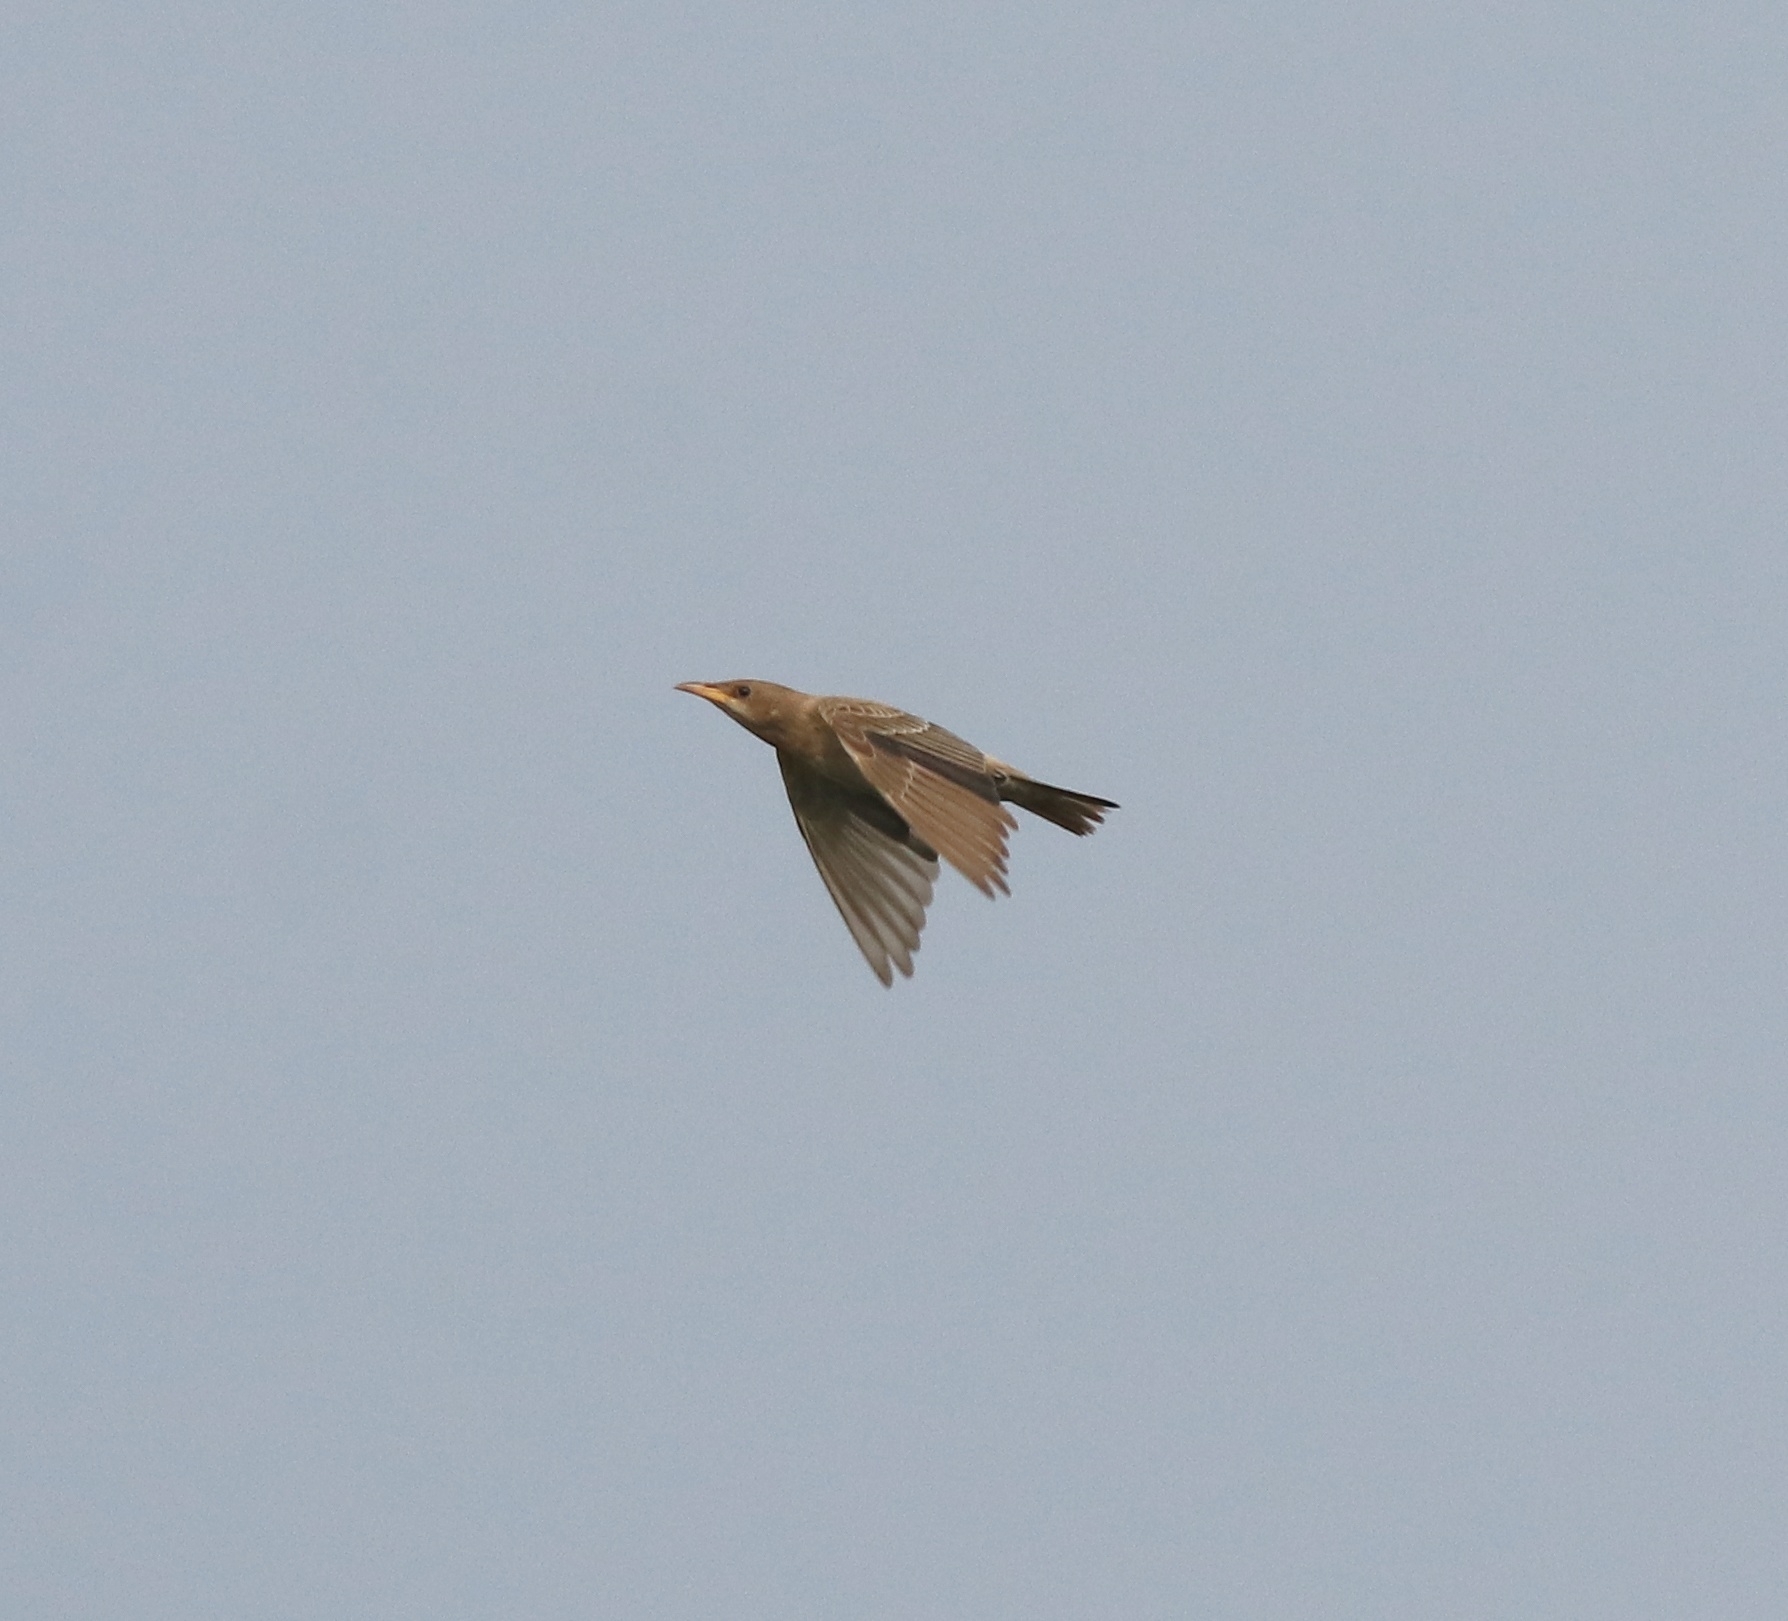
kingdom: Animalia
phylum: Chordata
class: Aves
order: Passeriformes
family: Sturnidae
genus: Pastor
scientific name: Pastor roseus
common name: Rosy starling
